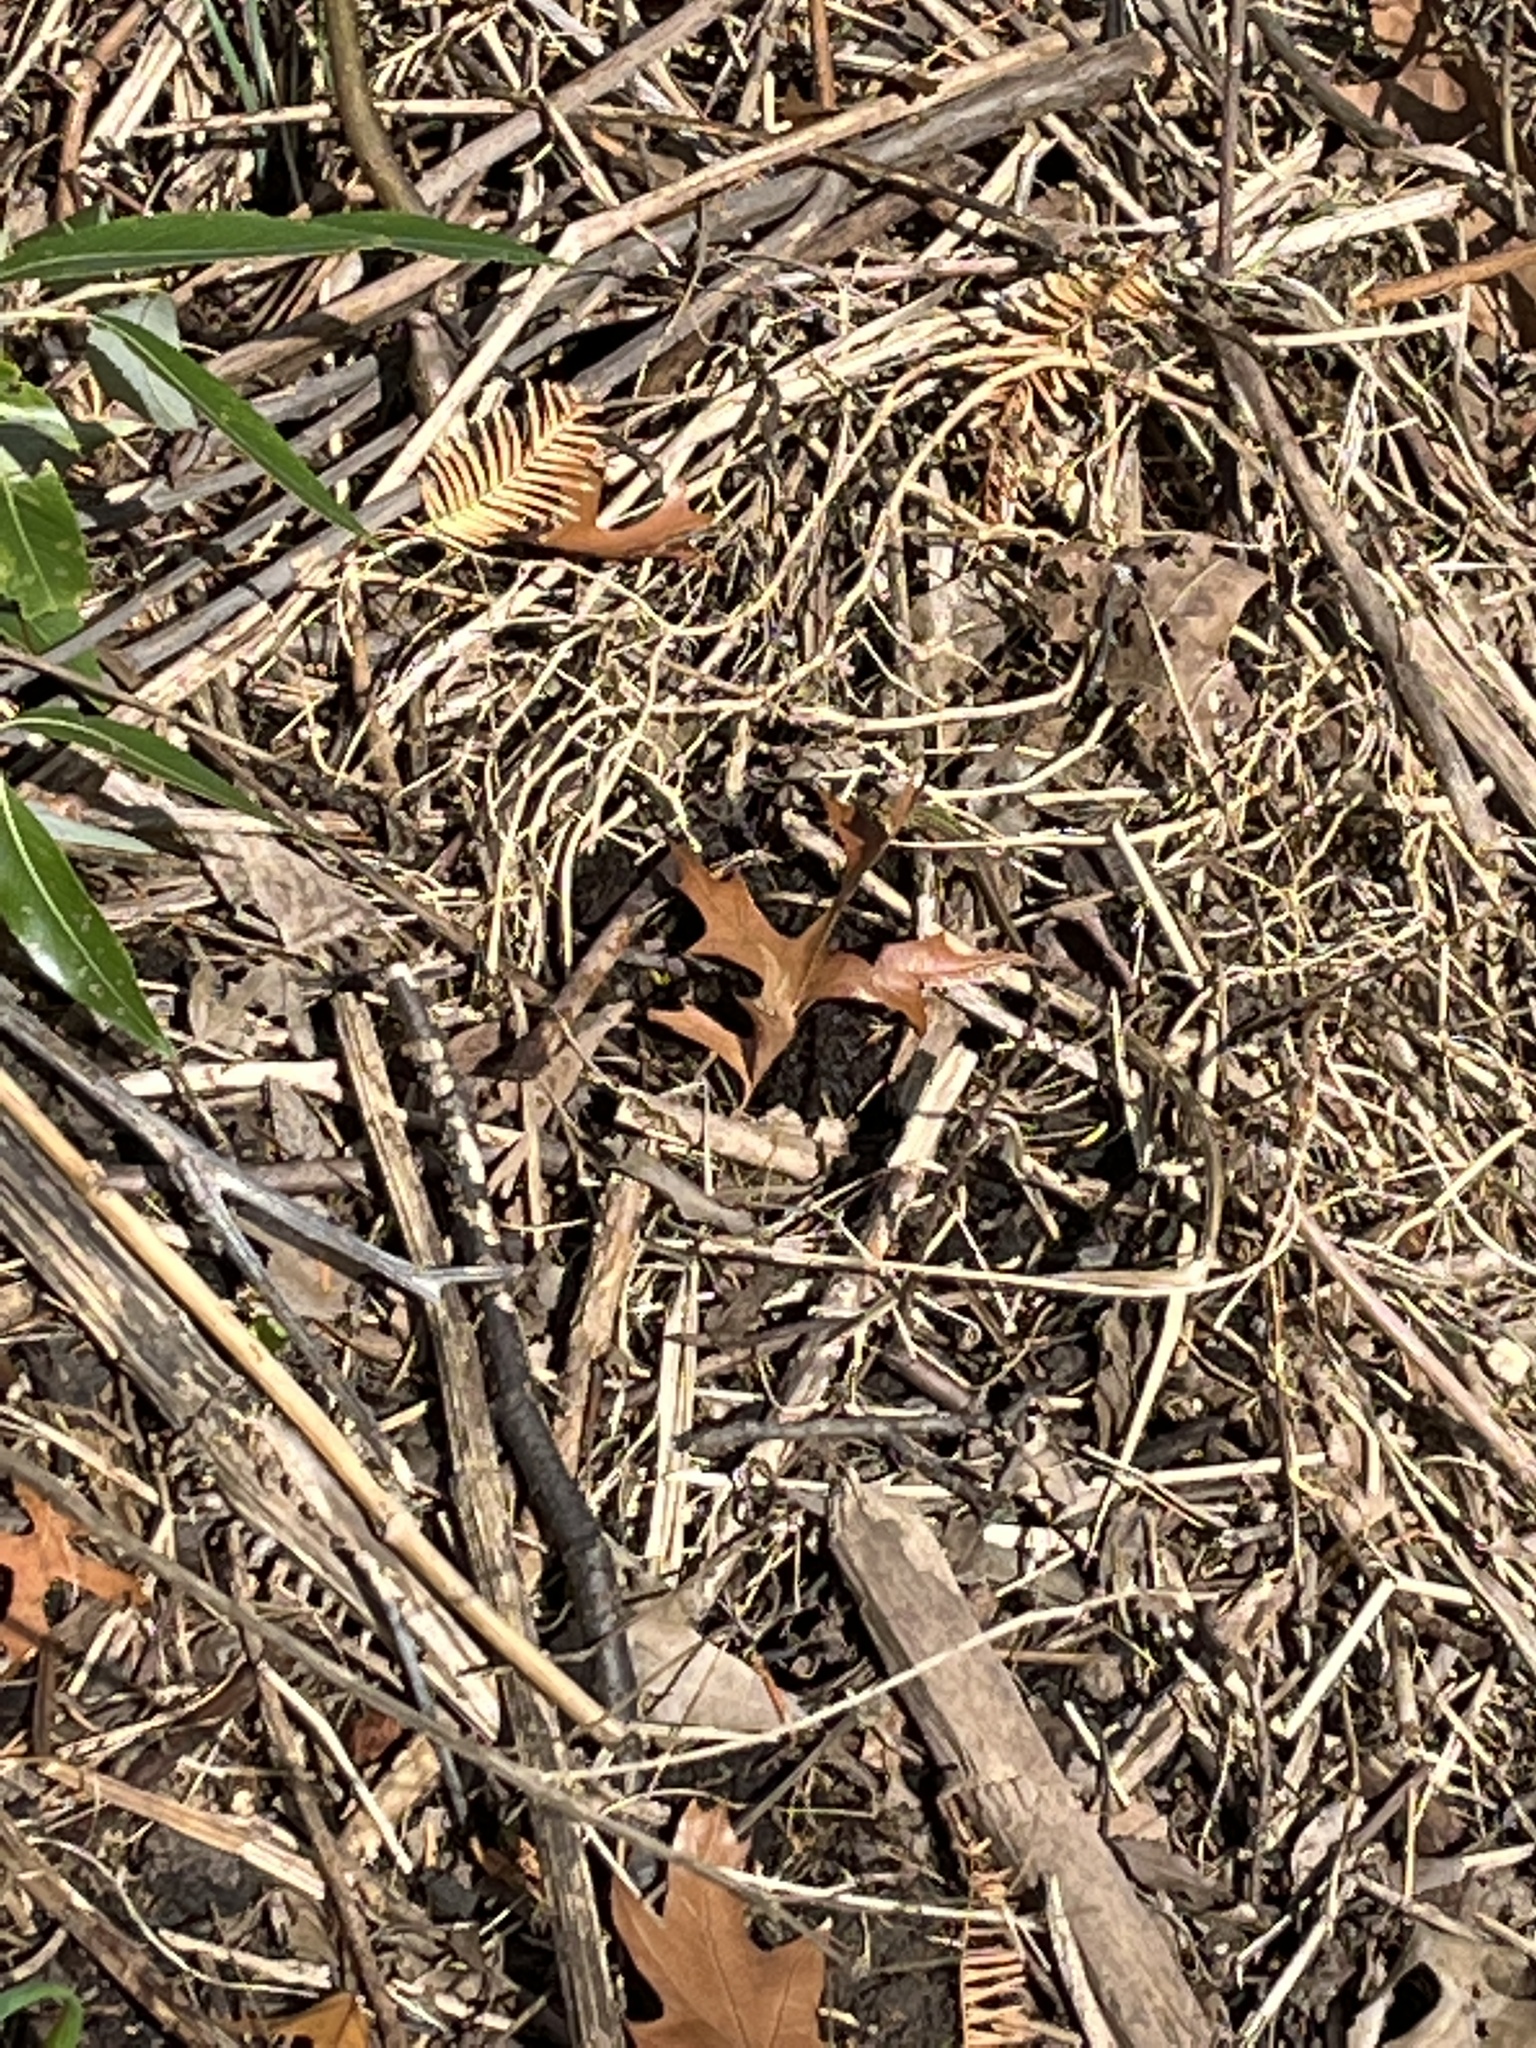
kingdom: Animalia
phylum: Chordata
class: Squamata
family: Lacertidae
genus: Podarcis
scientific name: Podarcis siculus
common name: Italian wall lizard
